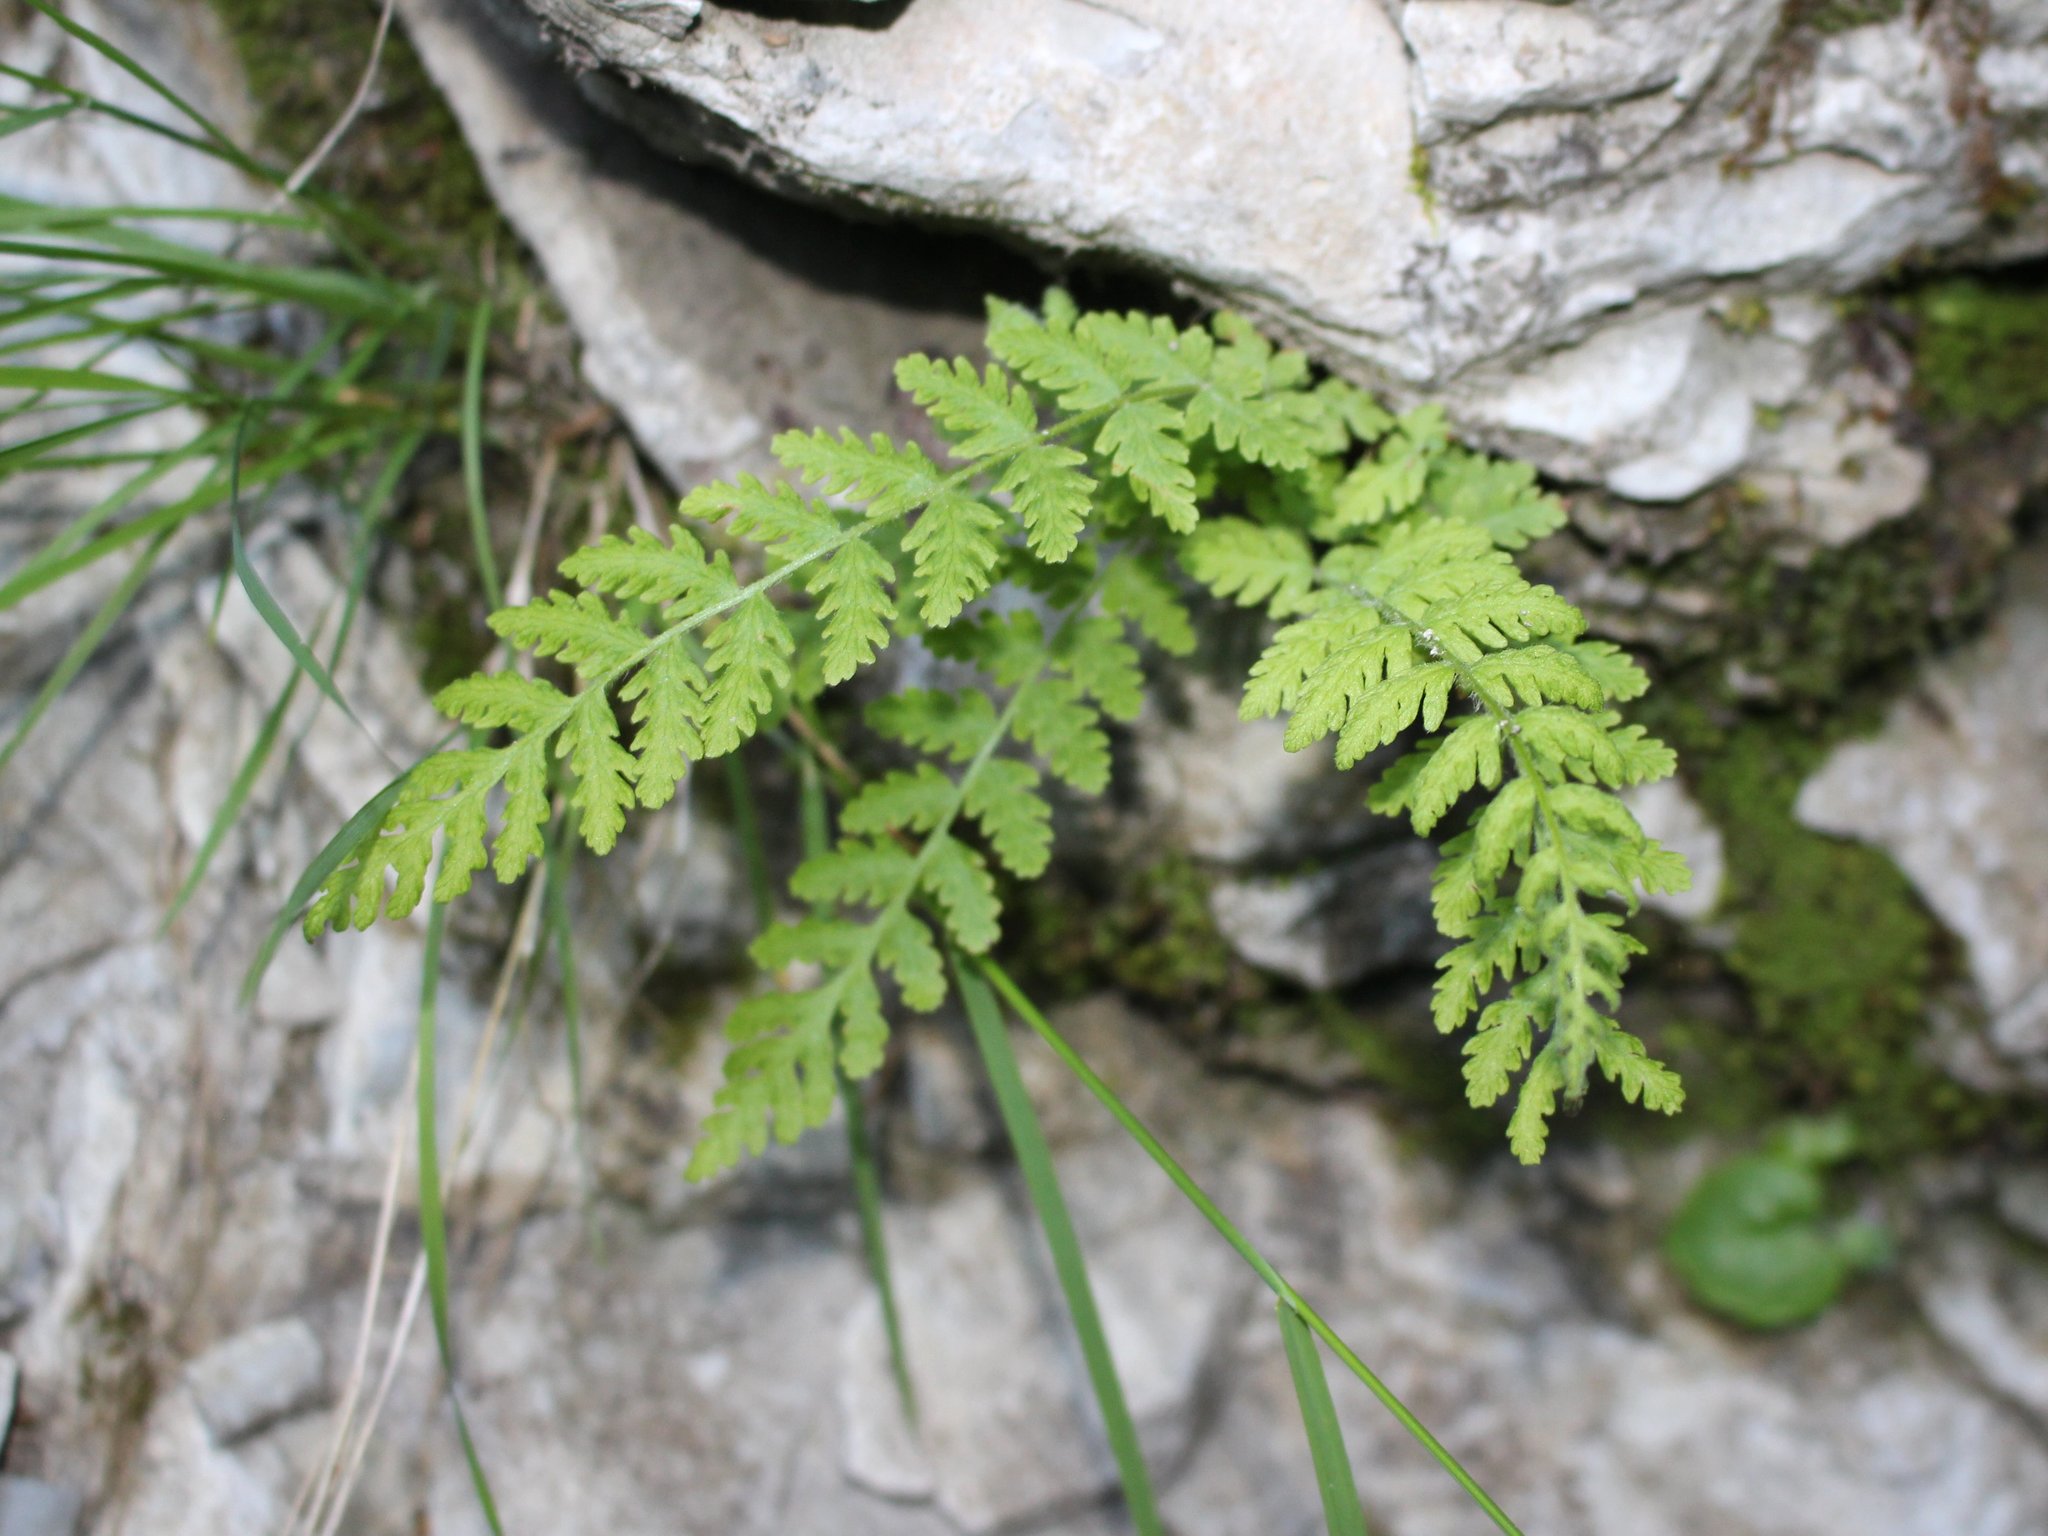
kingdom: Plantae
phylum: Tracheophyta
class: Polypodiopsida
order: Polypodiales
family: Woodsiaceae
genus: Physematium
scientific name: Physematium fragile
